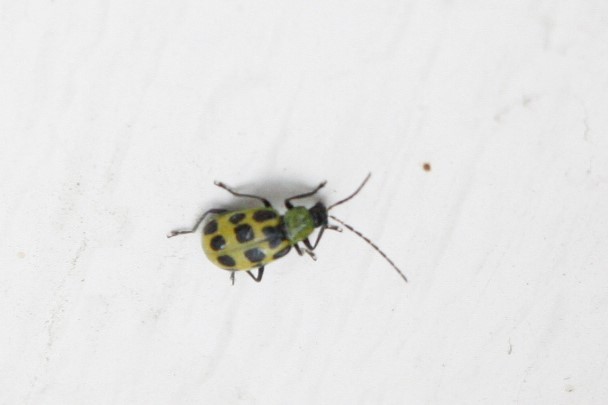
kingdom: Animalia
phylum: Arthropoda
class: Insecta
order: Coleoptera
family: Chrysomelidae
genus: Diabrotica
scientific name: Diabrotica undecimpunctata
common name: Spotted cucumber beetle
